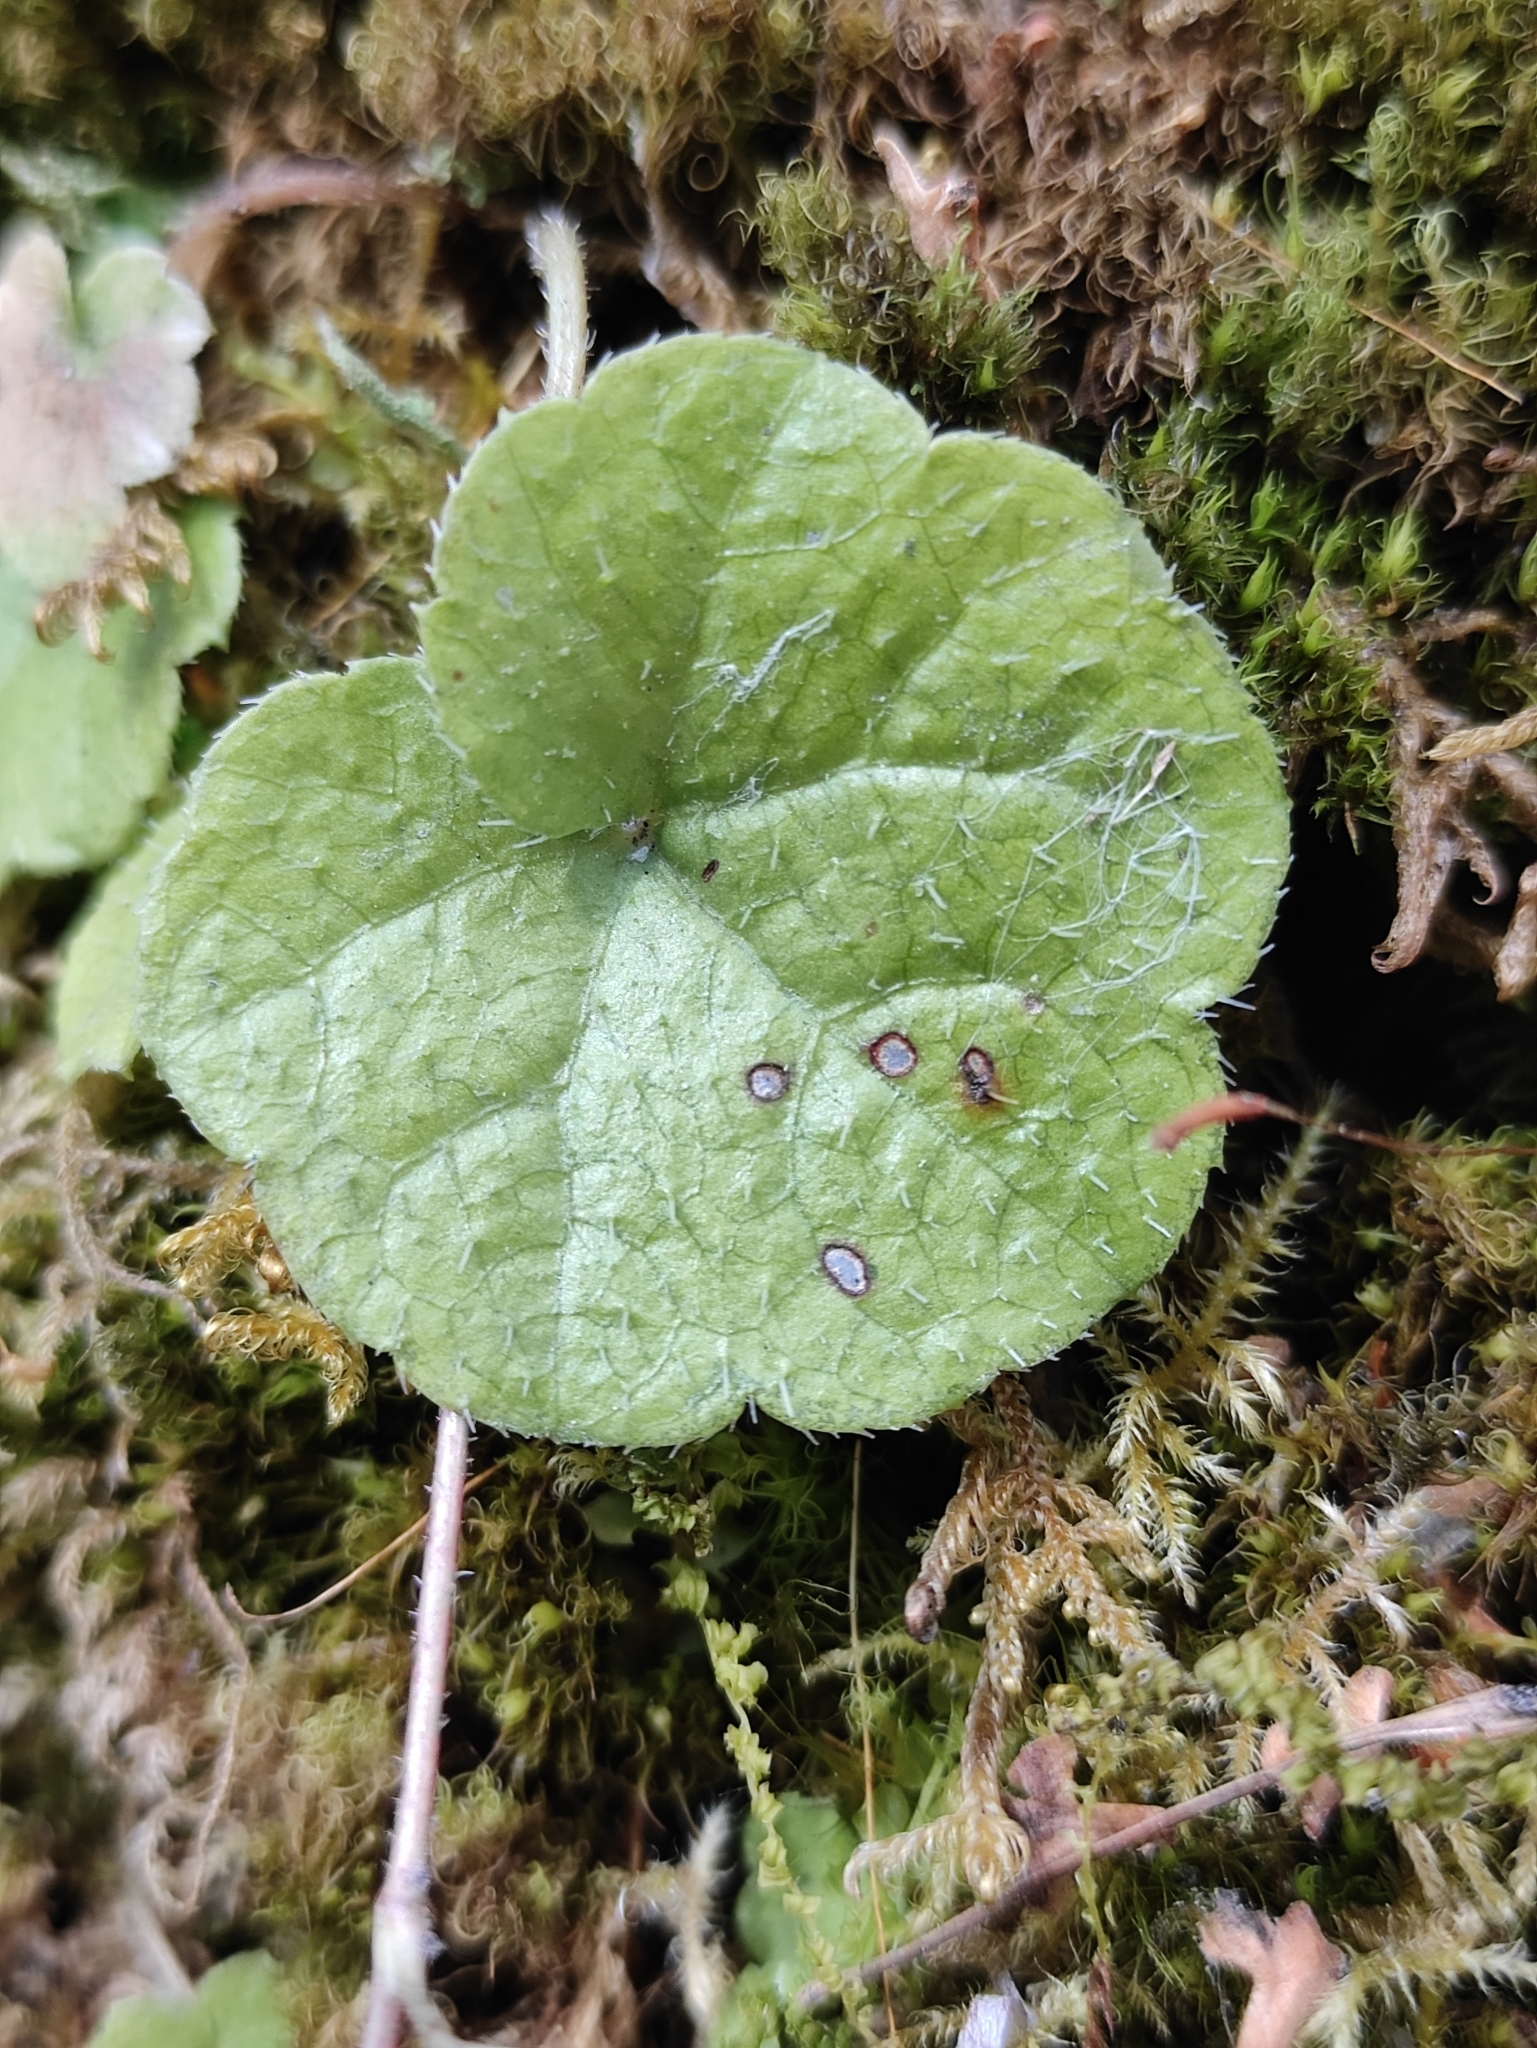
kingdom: Plantae
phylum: Tracheophyta
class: Magnoliopsida
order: Saxifragales
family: Saxifragaceae
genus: Mitella
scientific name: Mitella nuda
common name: Bare-stemmed bishop's-cap
